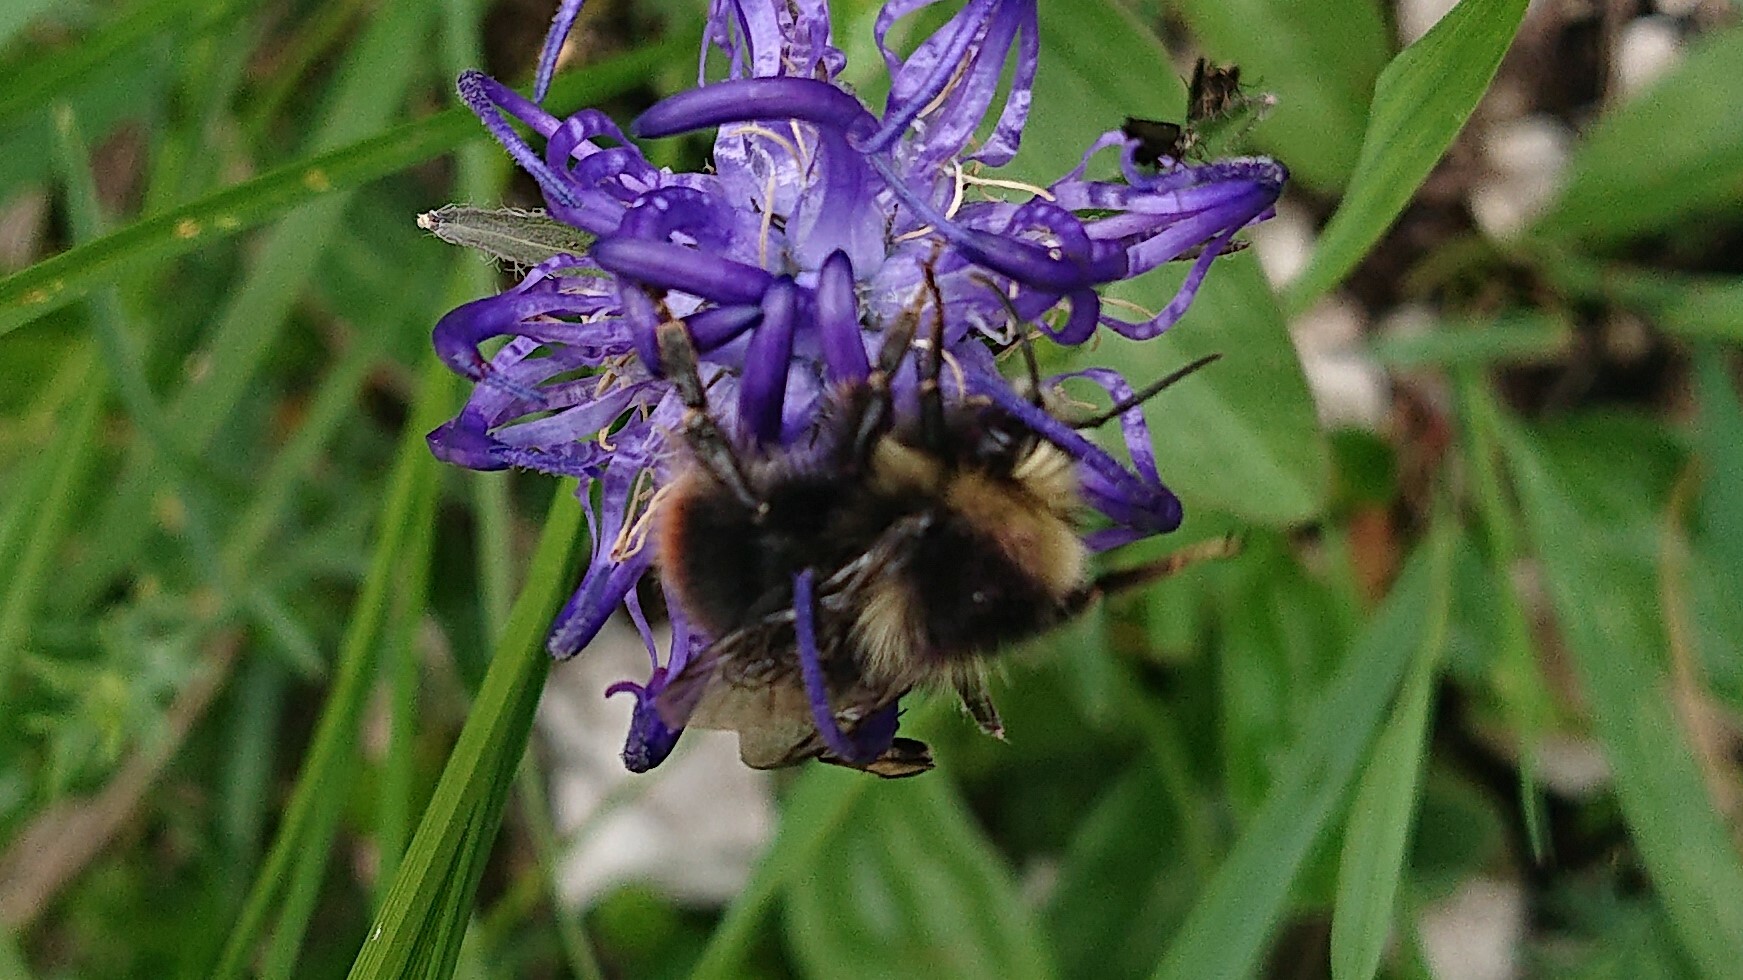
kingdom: Animalia
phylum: Arthropoda
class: Insecta
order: Hymenoptera
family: Apidae
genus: Bombus
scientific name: Bombus lapidarius
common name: Large red-tailed humble-bee
